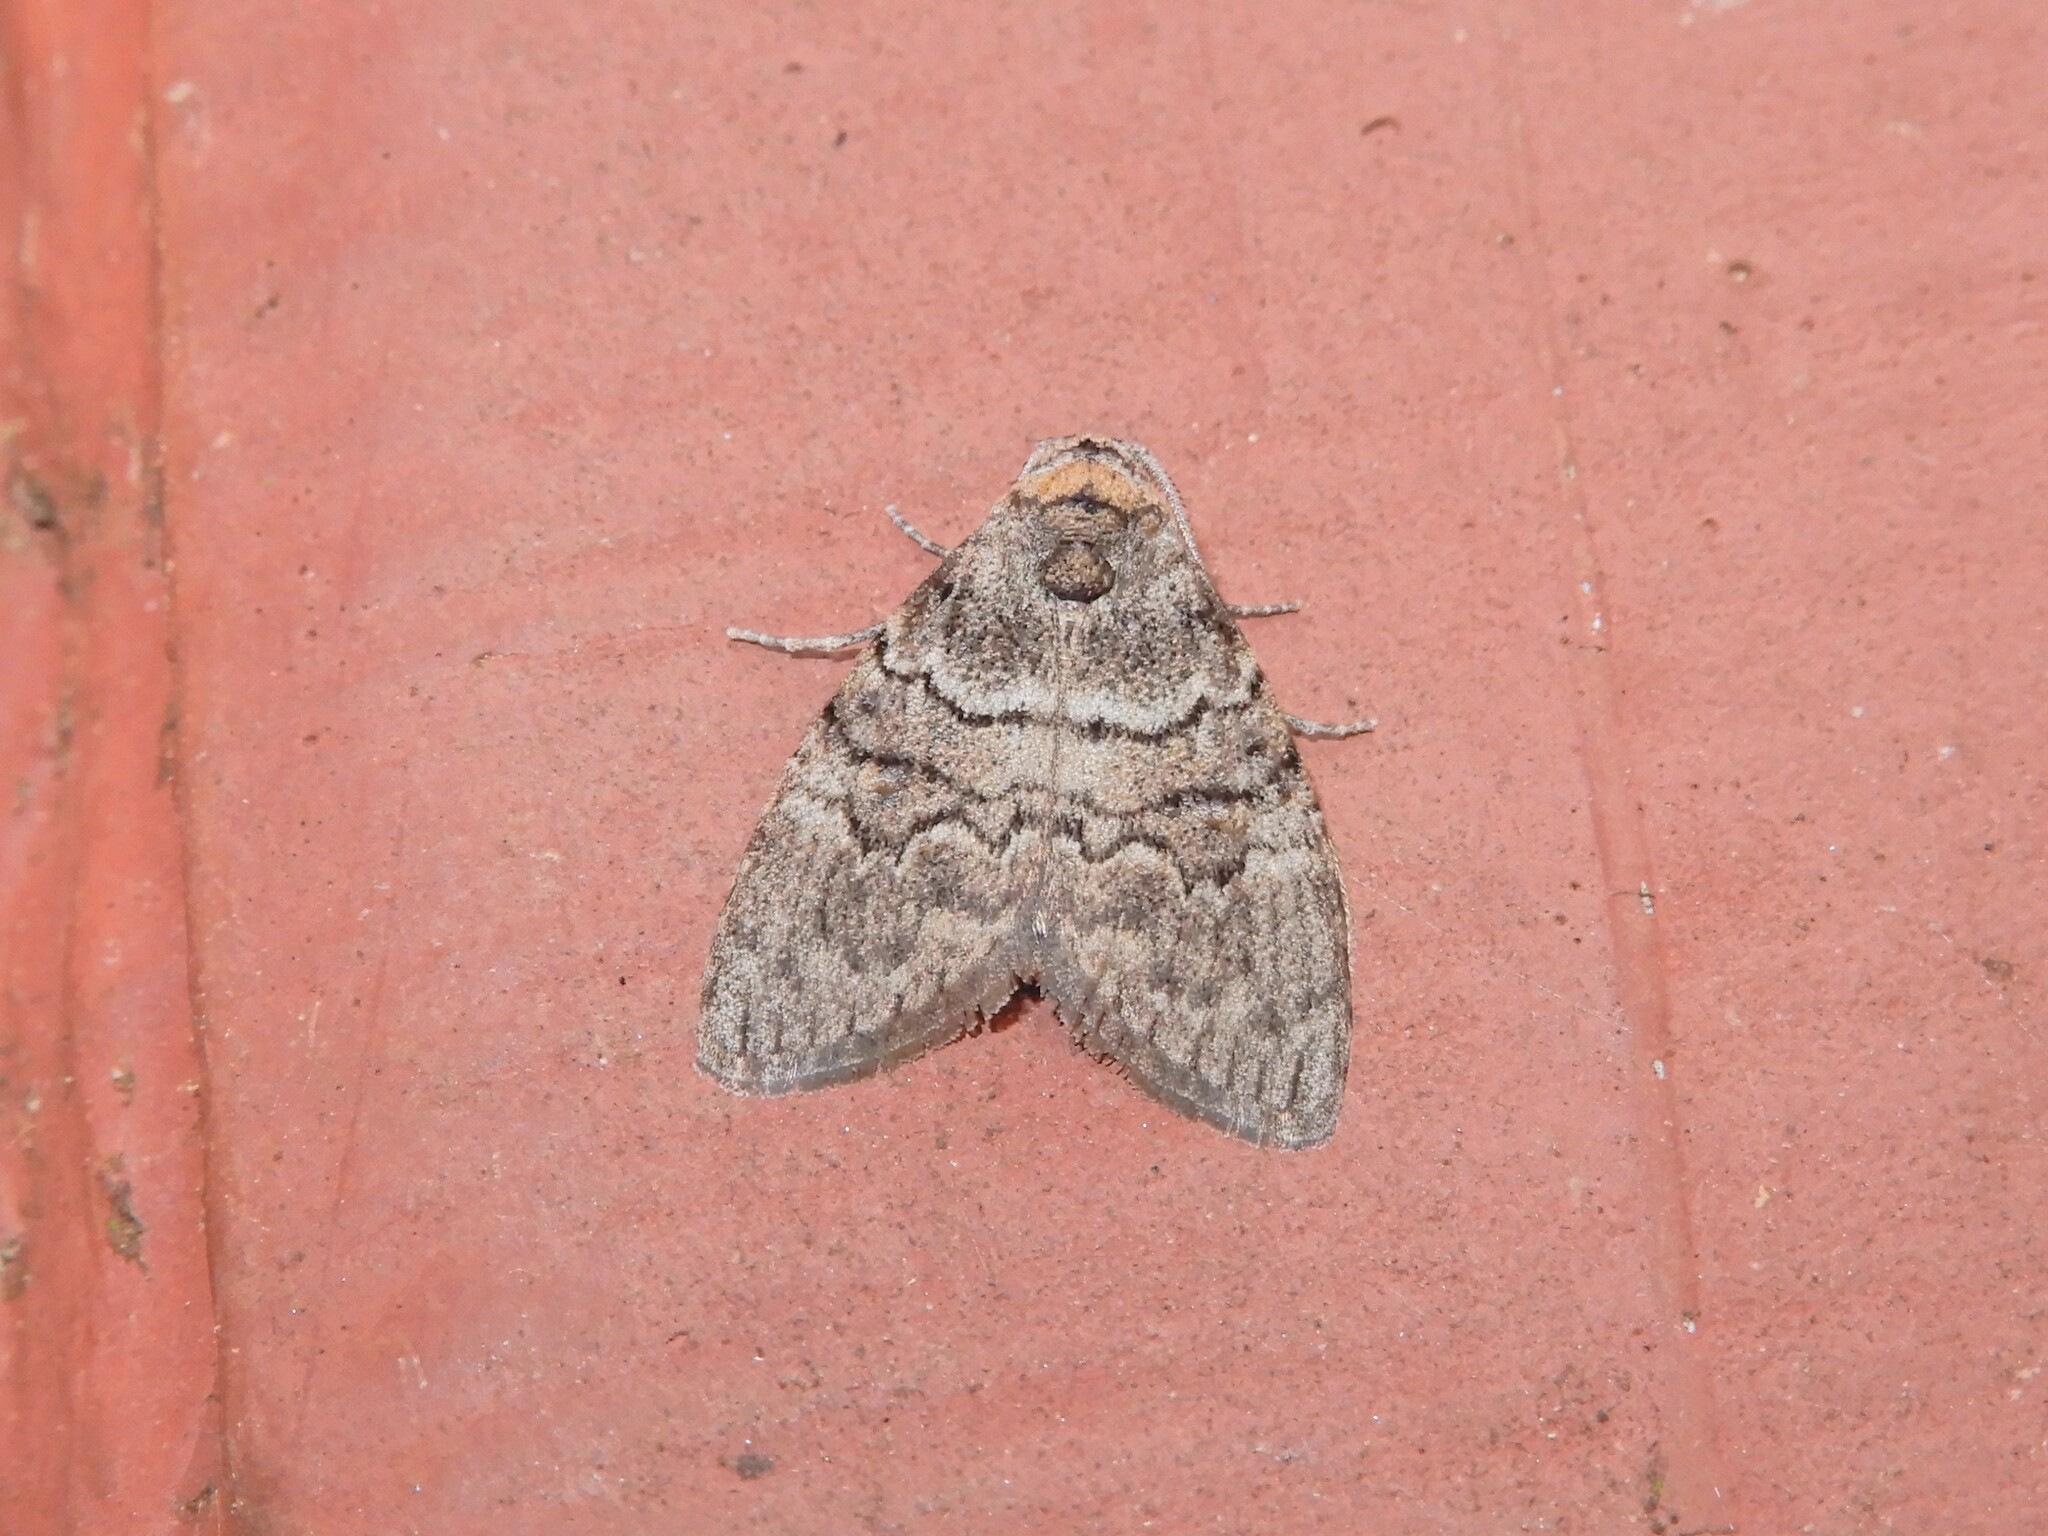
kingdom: Animalia
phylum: Arthropoda
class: Insecta
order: Lepidoptera
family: Nolidae
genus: Uraba
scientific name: Uraba lugens
